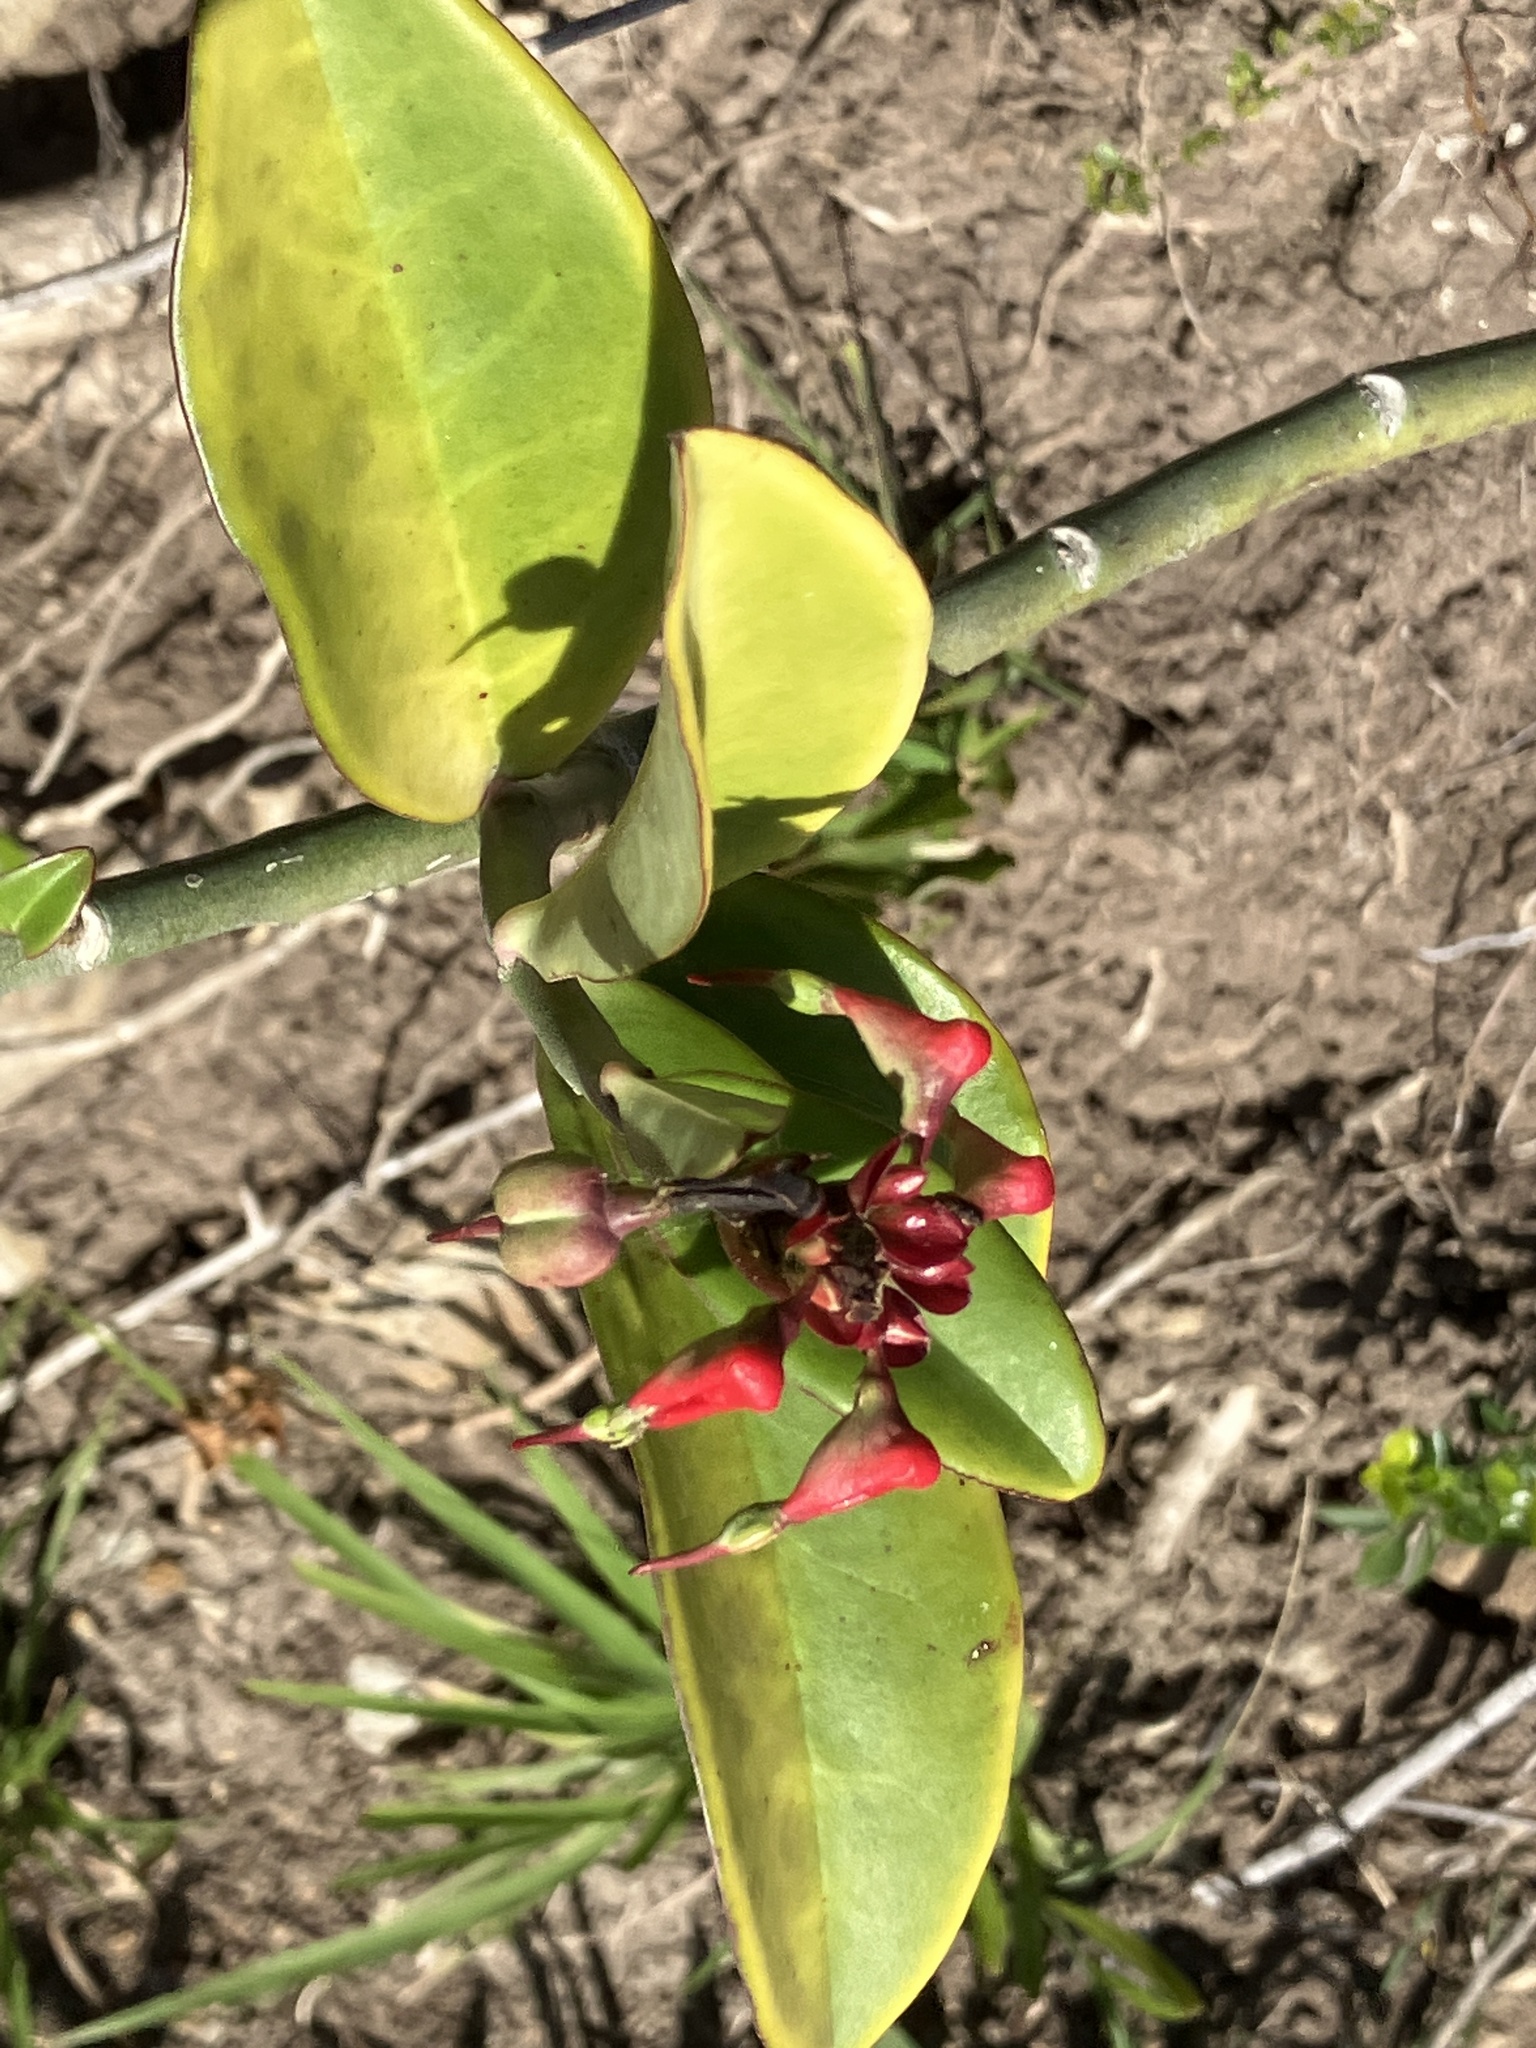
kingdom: Plantae
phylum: Tracheophyta
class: Magnoliopsida
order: Malpighiales
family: Euphorbiaceae
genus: Euphorbia
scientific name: Euphorbia tithymaloides
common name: Slipperplant
